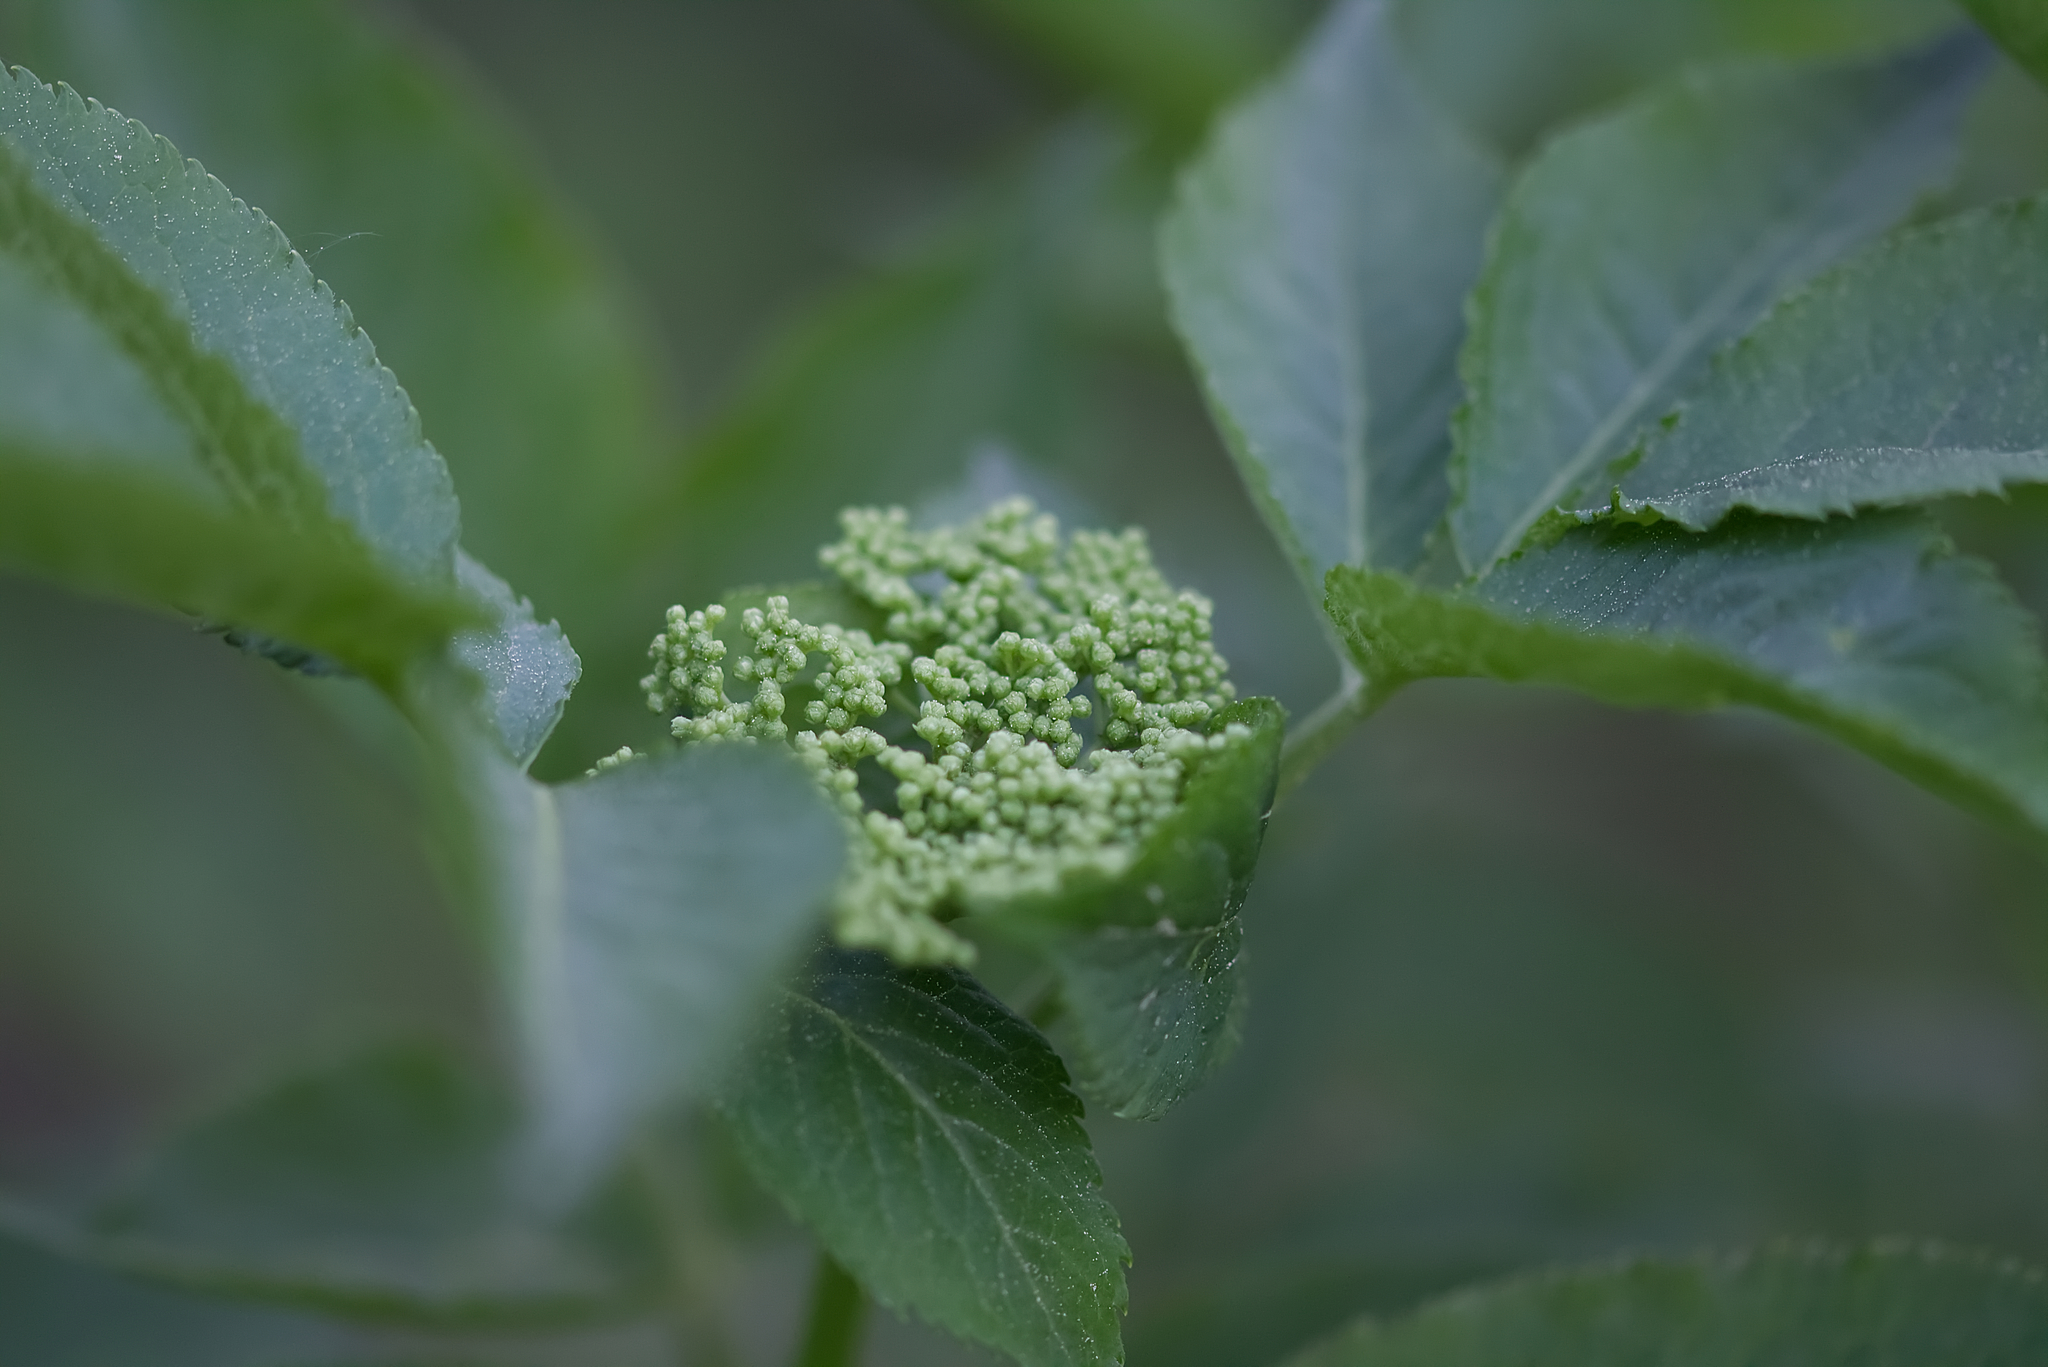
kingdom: Plantae
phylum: Tracheophyta
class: Magnoliopsida
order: Dipsacales
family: Viburnaceae
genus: Sambucus
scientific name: Sambucus nigra
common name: Elder
